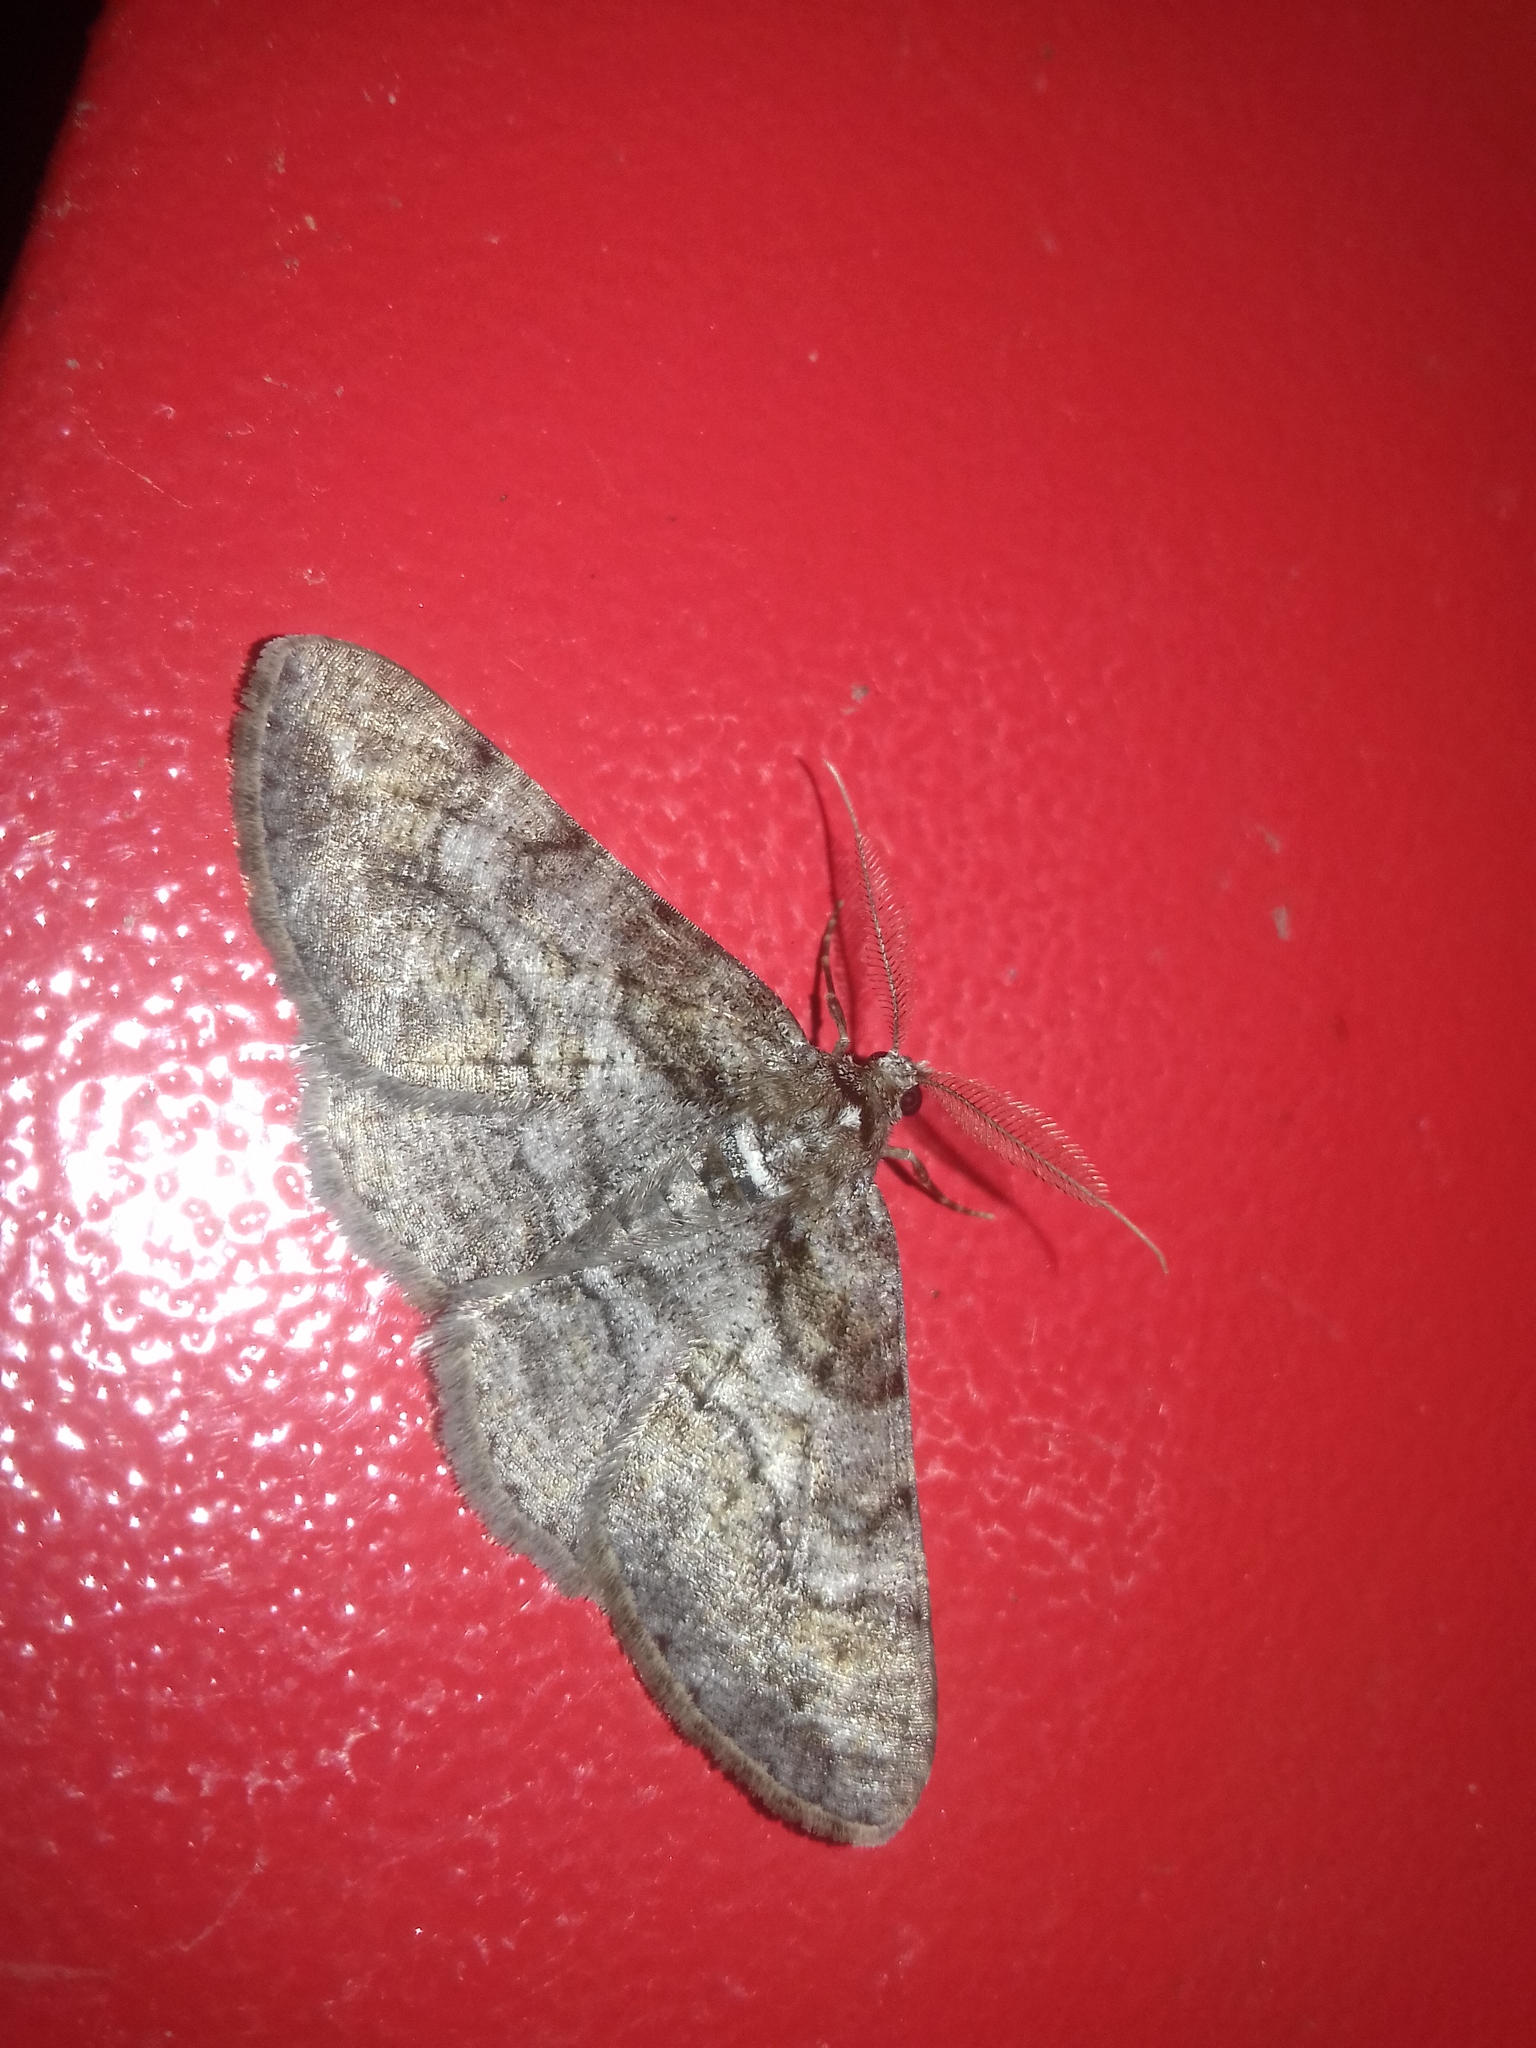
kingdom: Animalia
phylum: Arthropoda
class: Insecta
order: Lepidoptera
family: Geometridae
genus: Cleora
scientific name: Cleora cinctaria
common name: Ringed carpet
